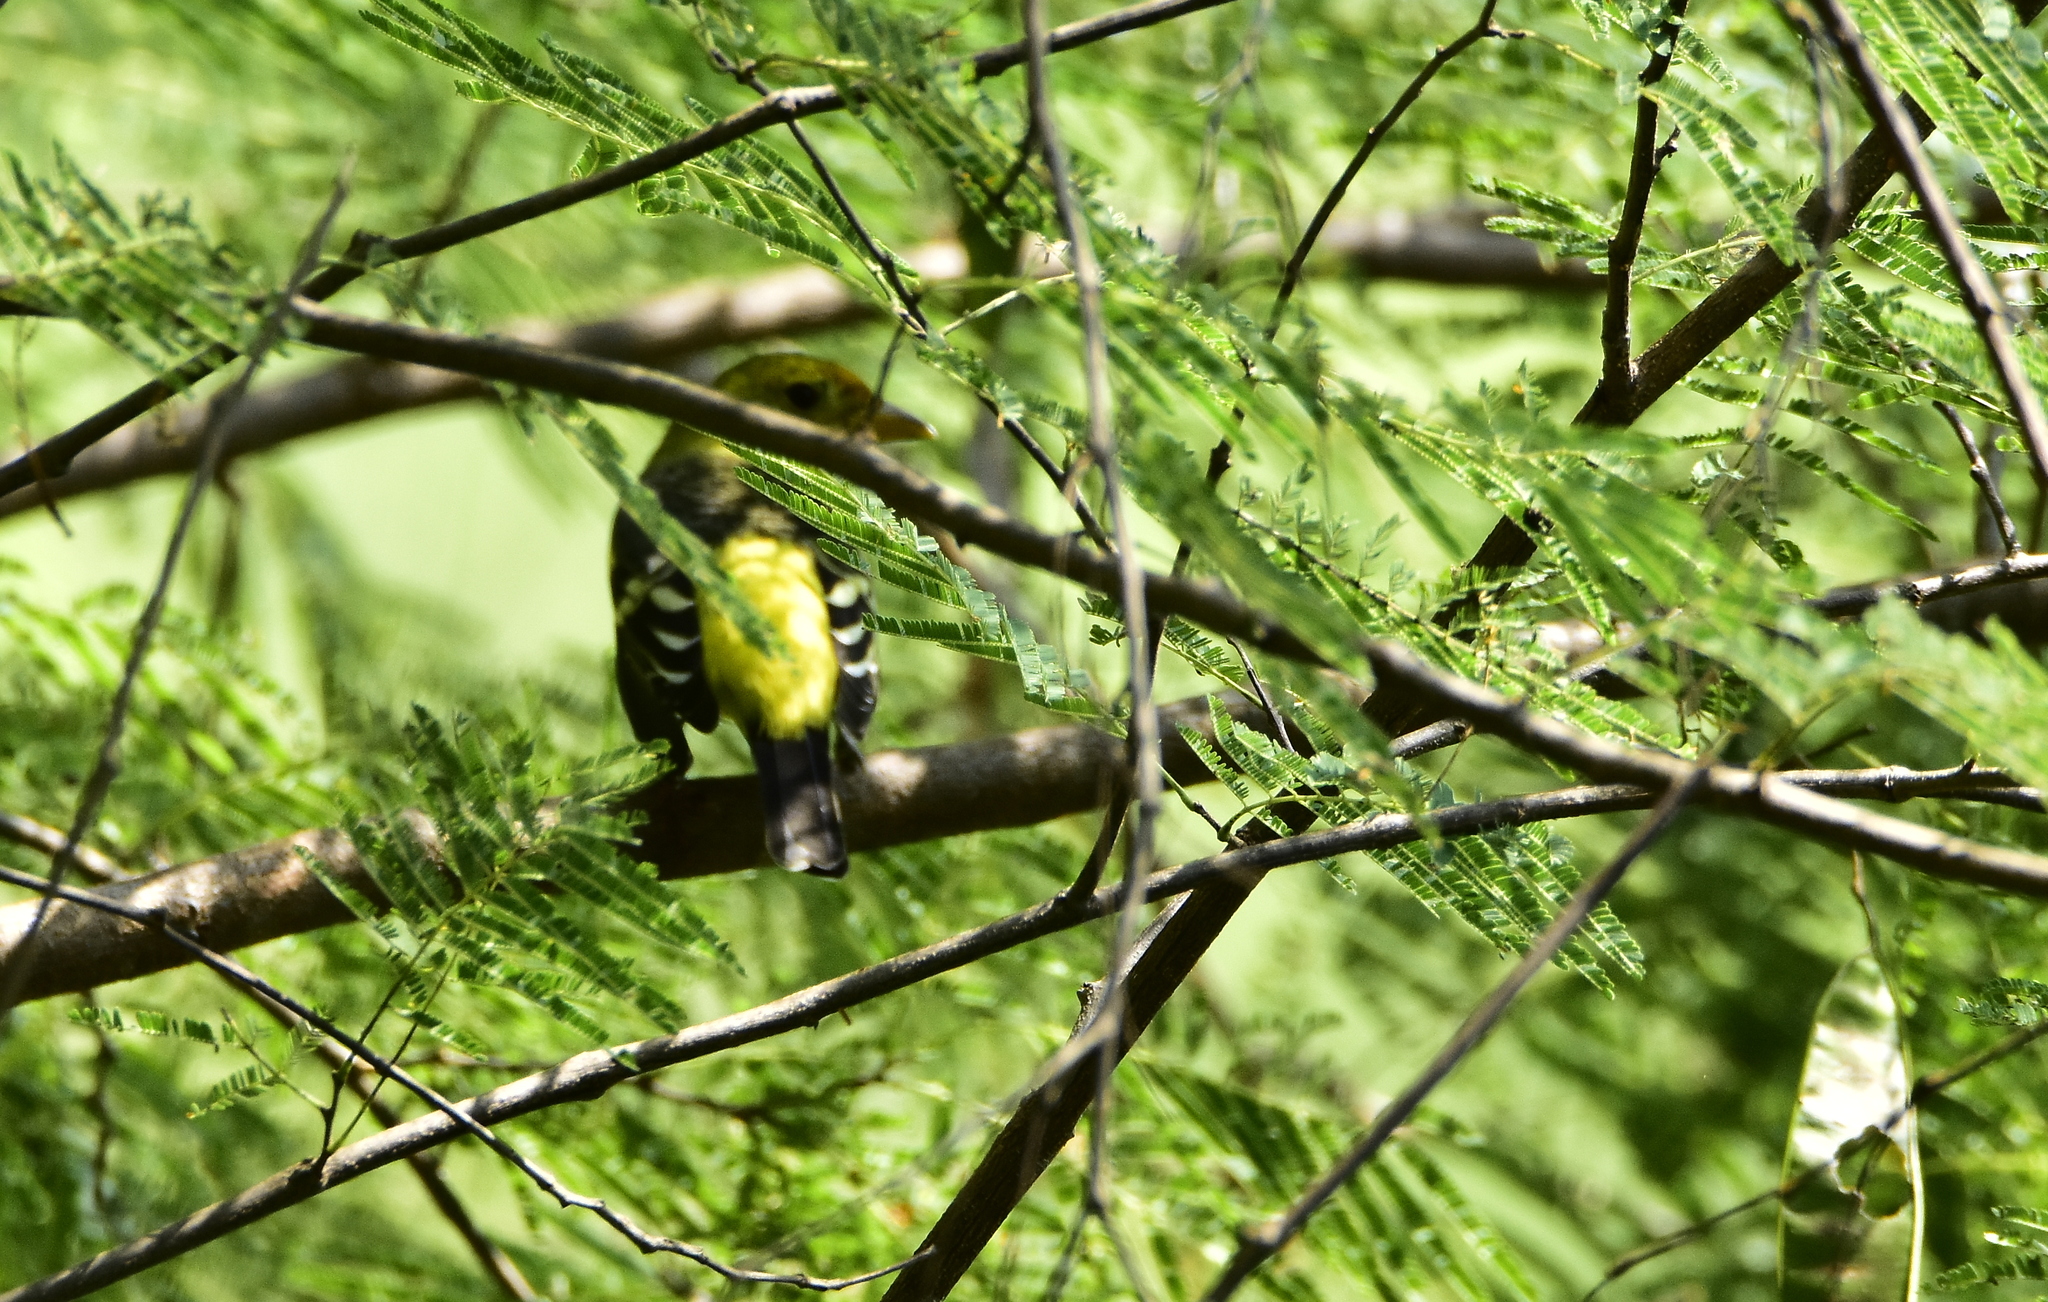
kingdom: Animalia
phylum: Chordata
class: Aves
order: Passeriformes
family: Cardinalidae
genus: Piranga
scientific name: Piranga ludoviciana
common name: Western tanager
